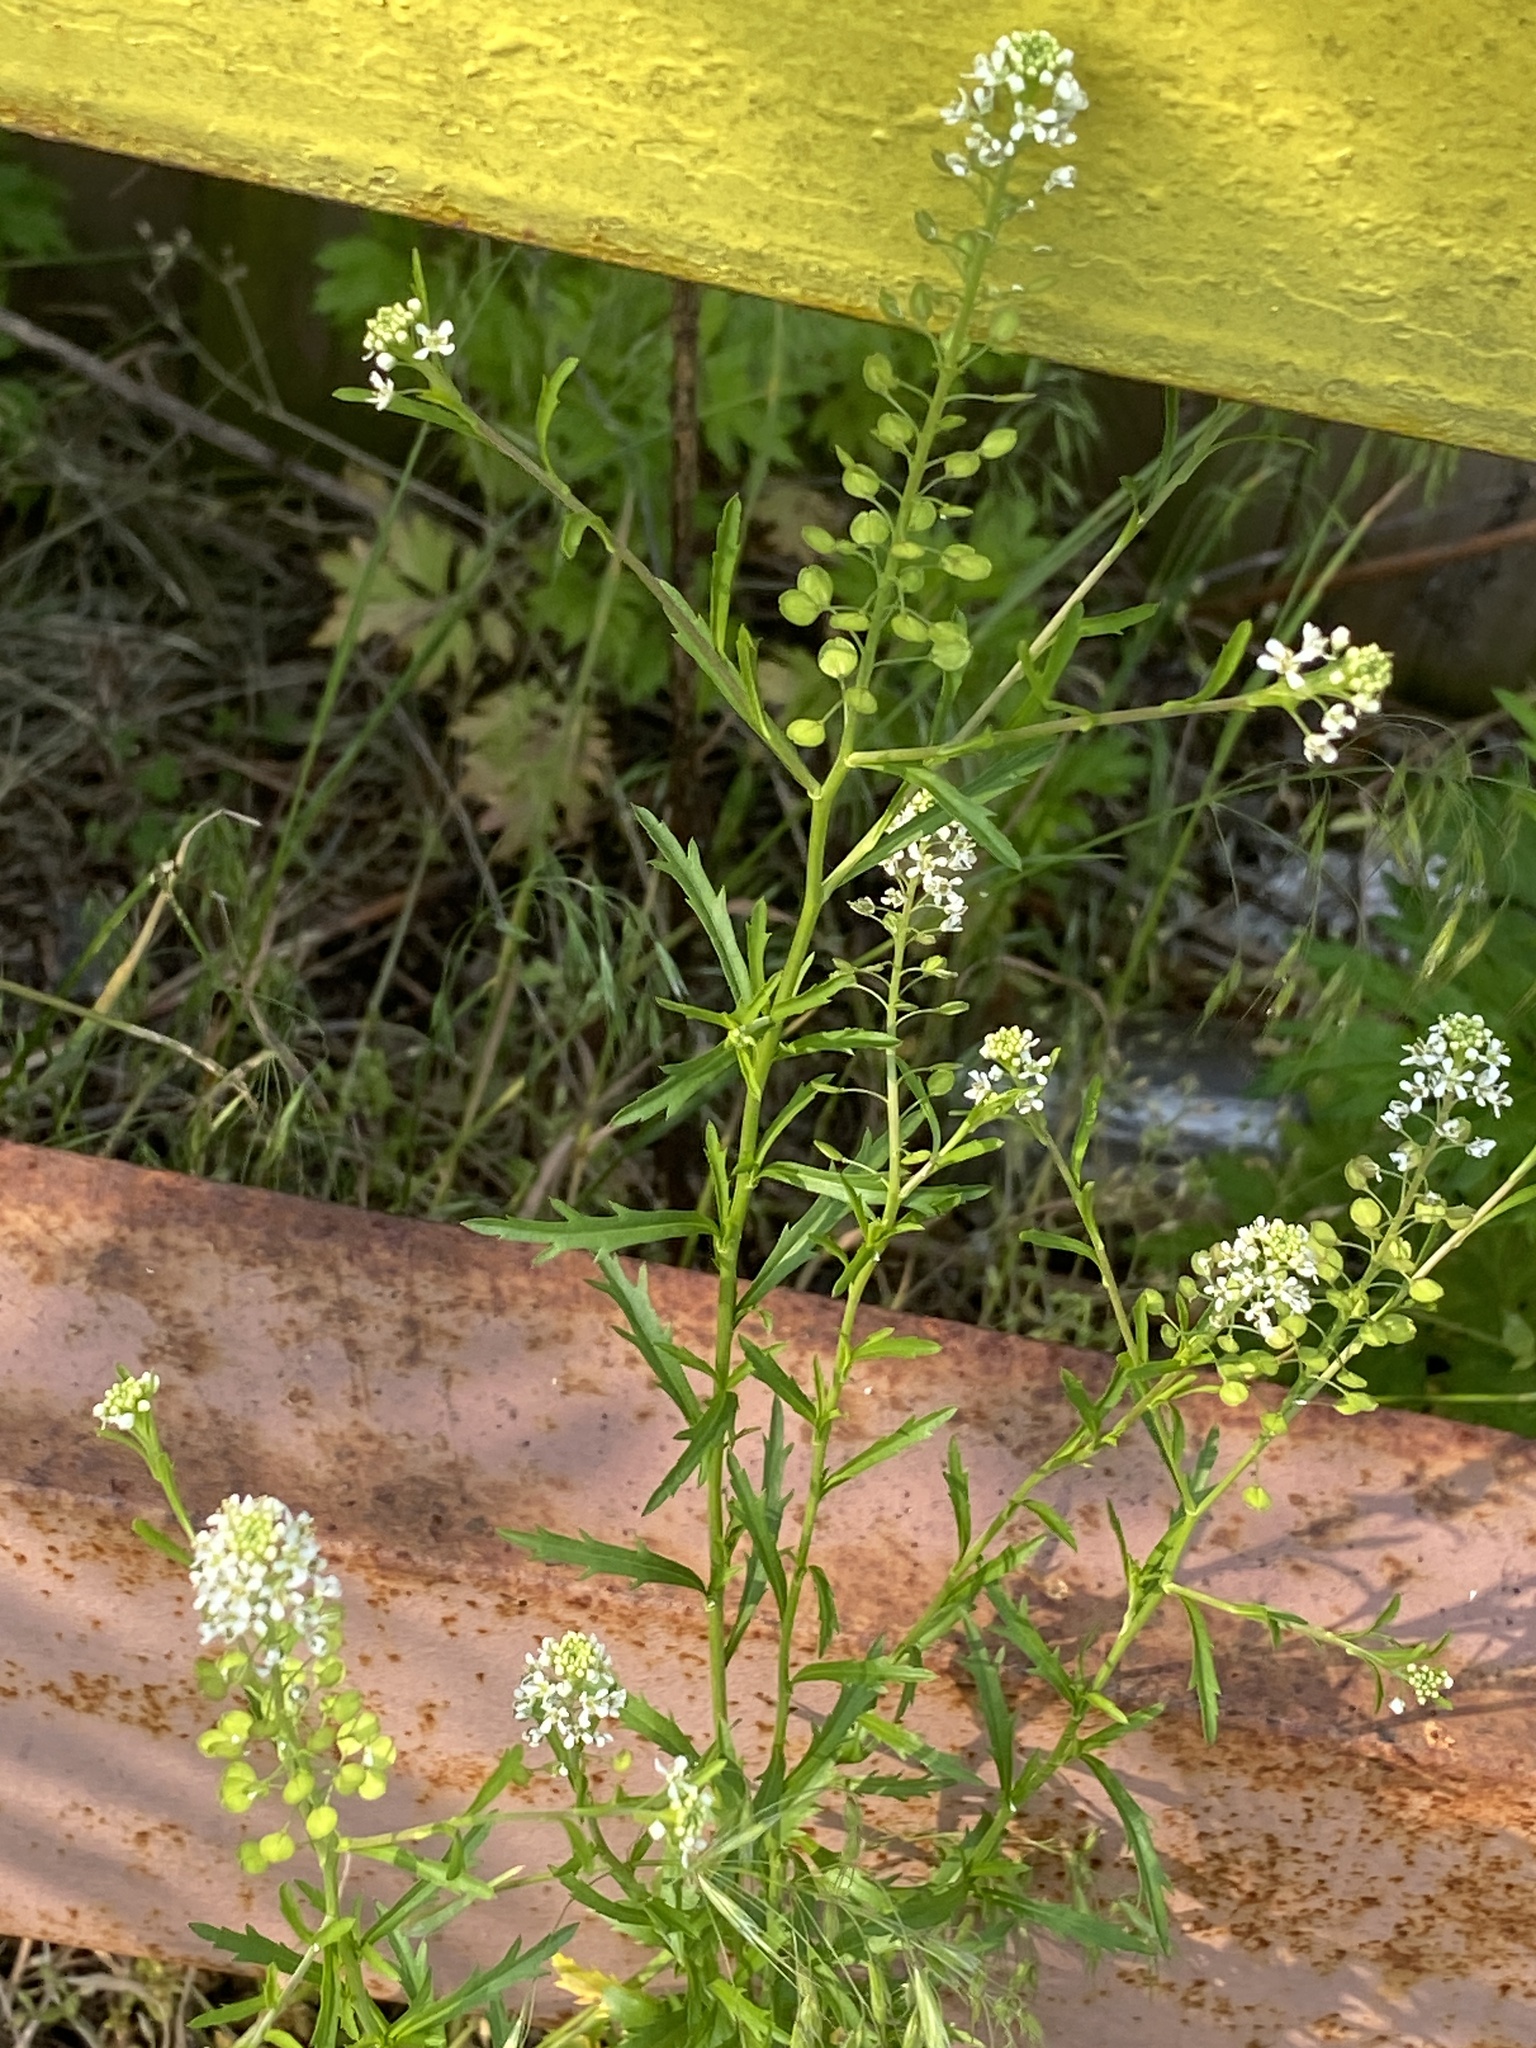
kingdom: Plantae
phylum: Tracheophyta
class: Magnoliopsida
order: Brassicales
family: Brassicaceae
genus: Lepidium
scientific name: Lepidium virginicum
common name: Least pepperwort
